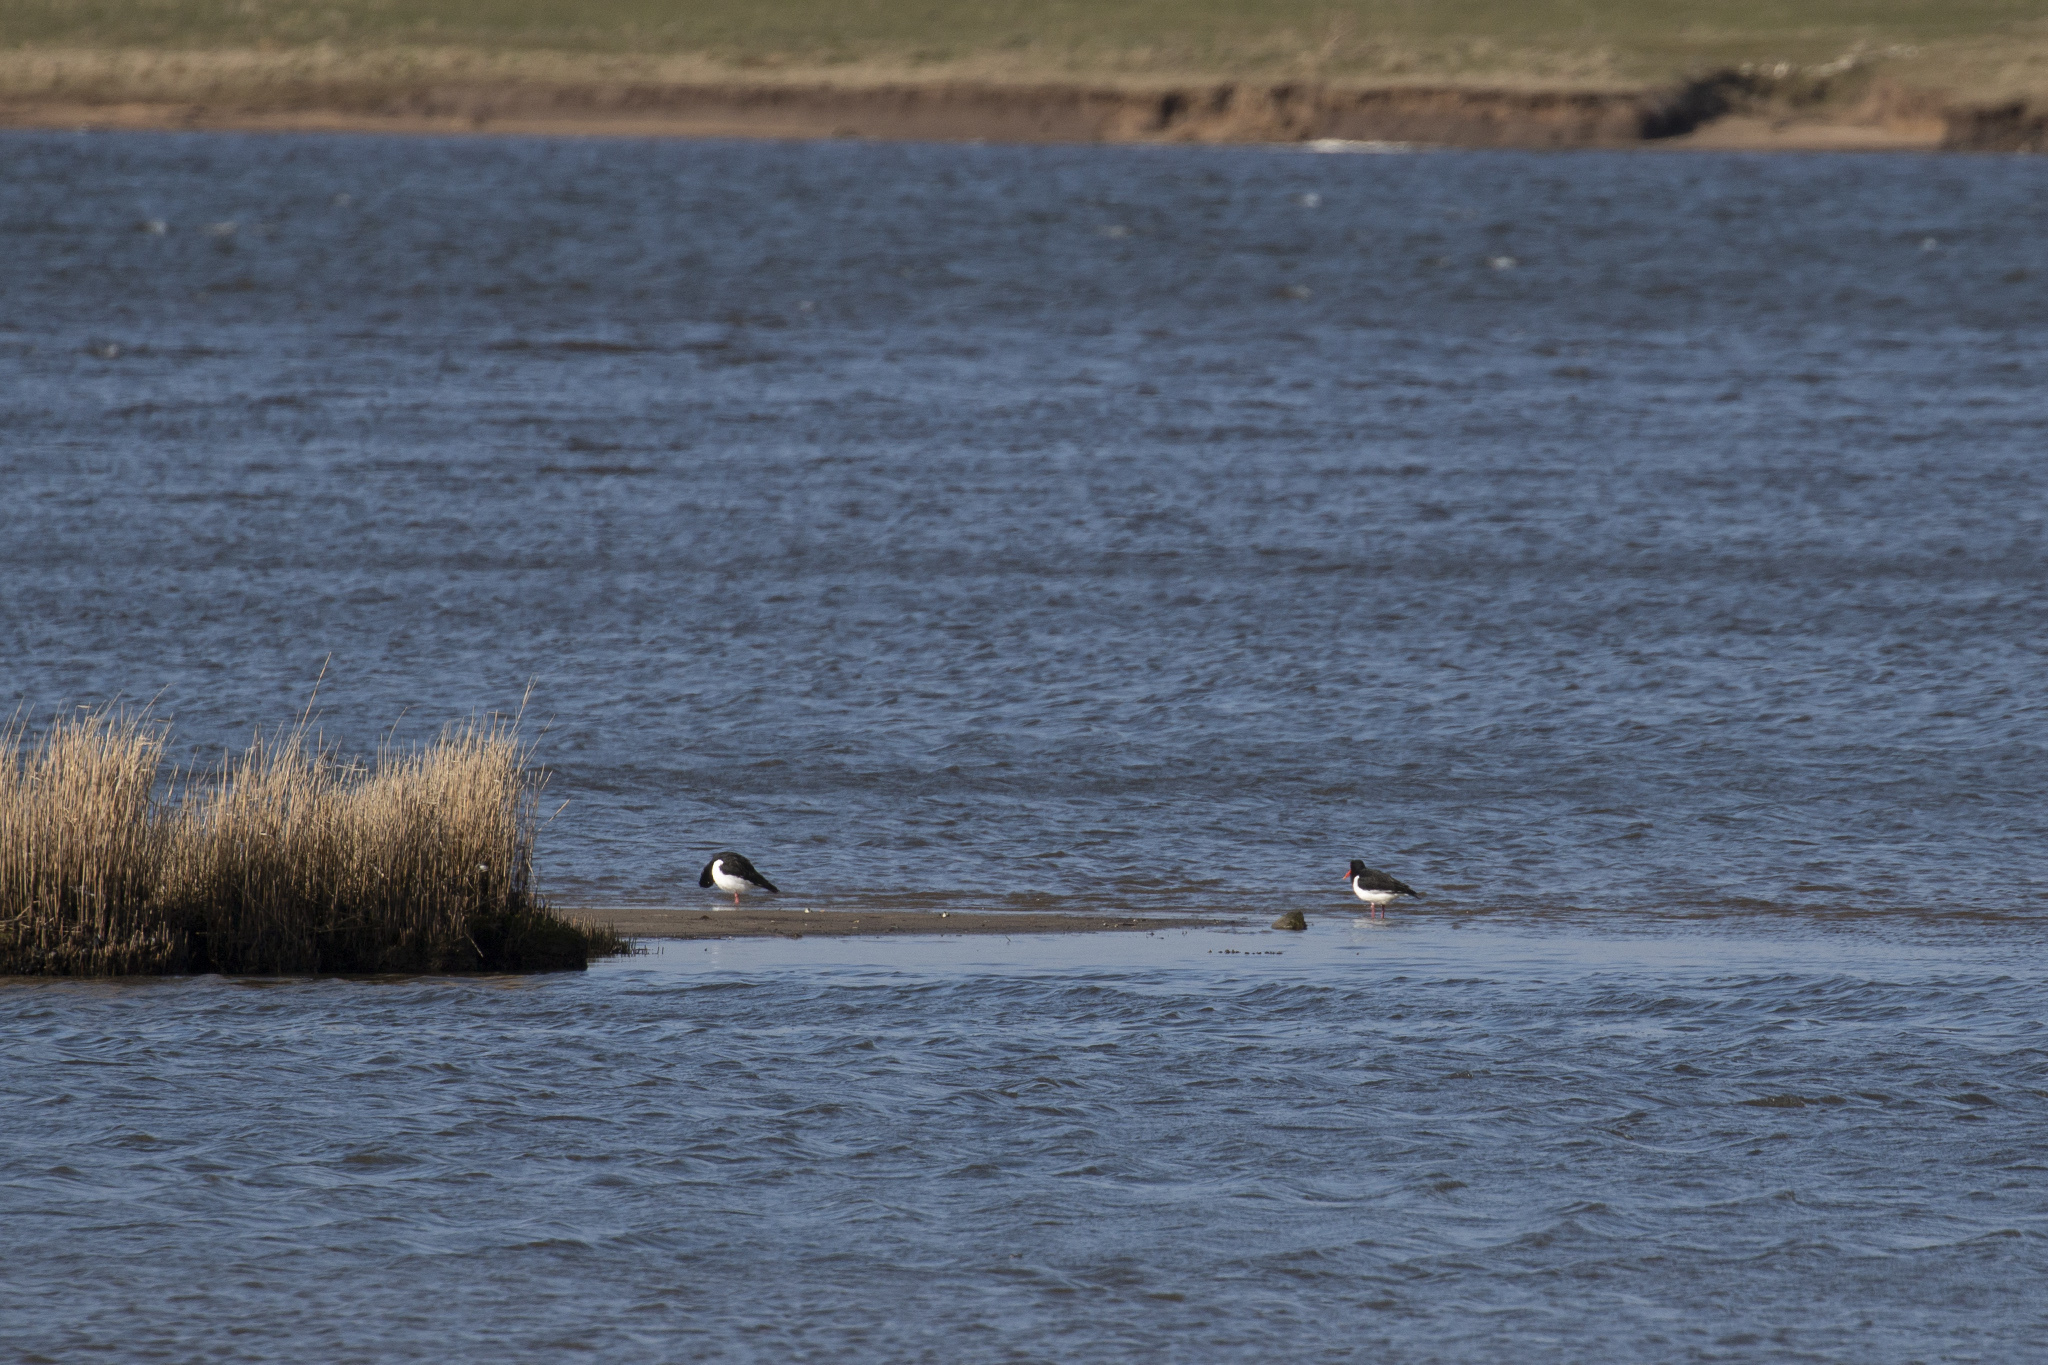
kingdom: Animalia
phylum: Chordata
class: Aves
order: Anseriformes
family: Anatidae
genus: Tadorna
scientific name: Tadorna tadorna
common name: Common shelduck
